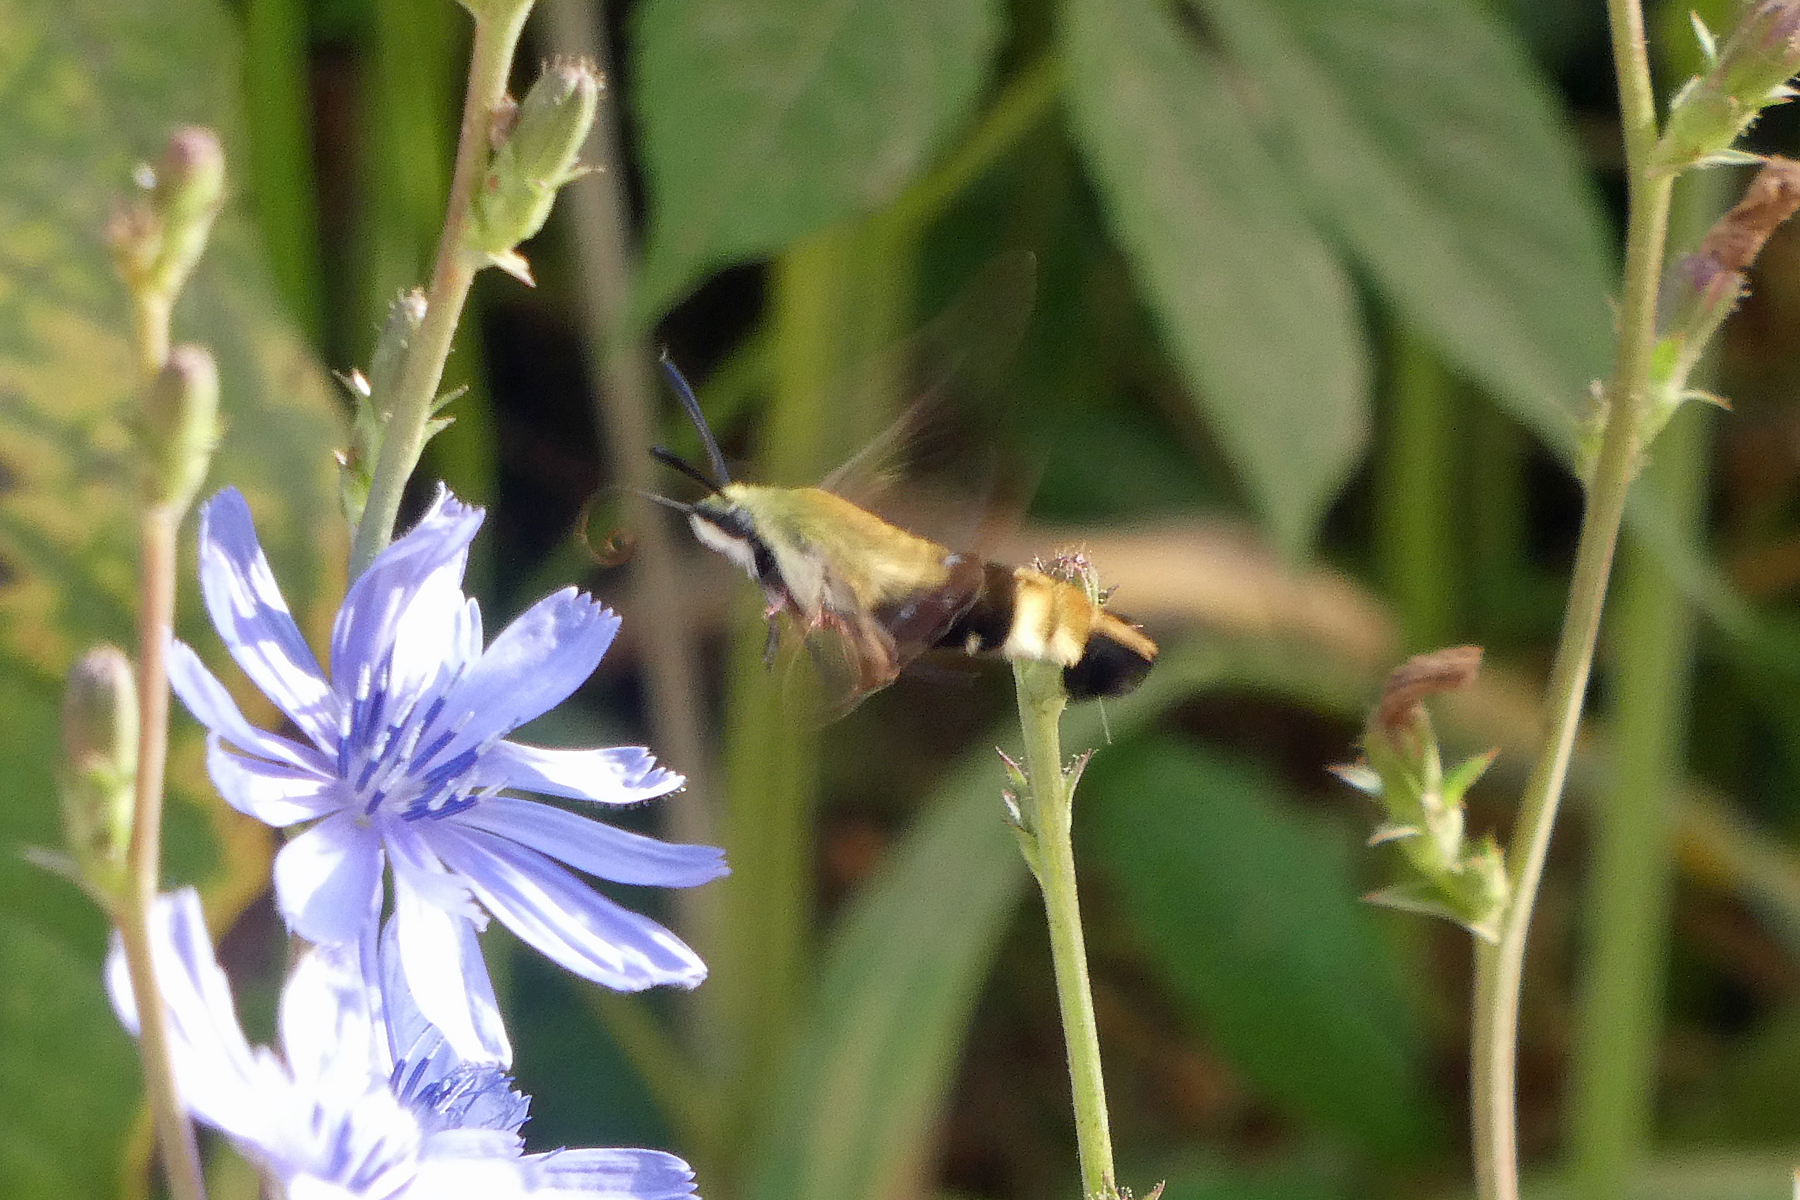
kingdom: Animalia
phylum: Arthropoda
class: Insecta
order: Lepidoptera
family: Sphingidae
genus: Hemaris
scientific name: Hemaris diffinis
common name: Bumblebee moth
